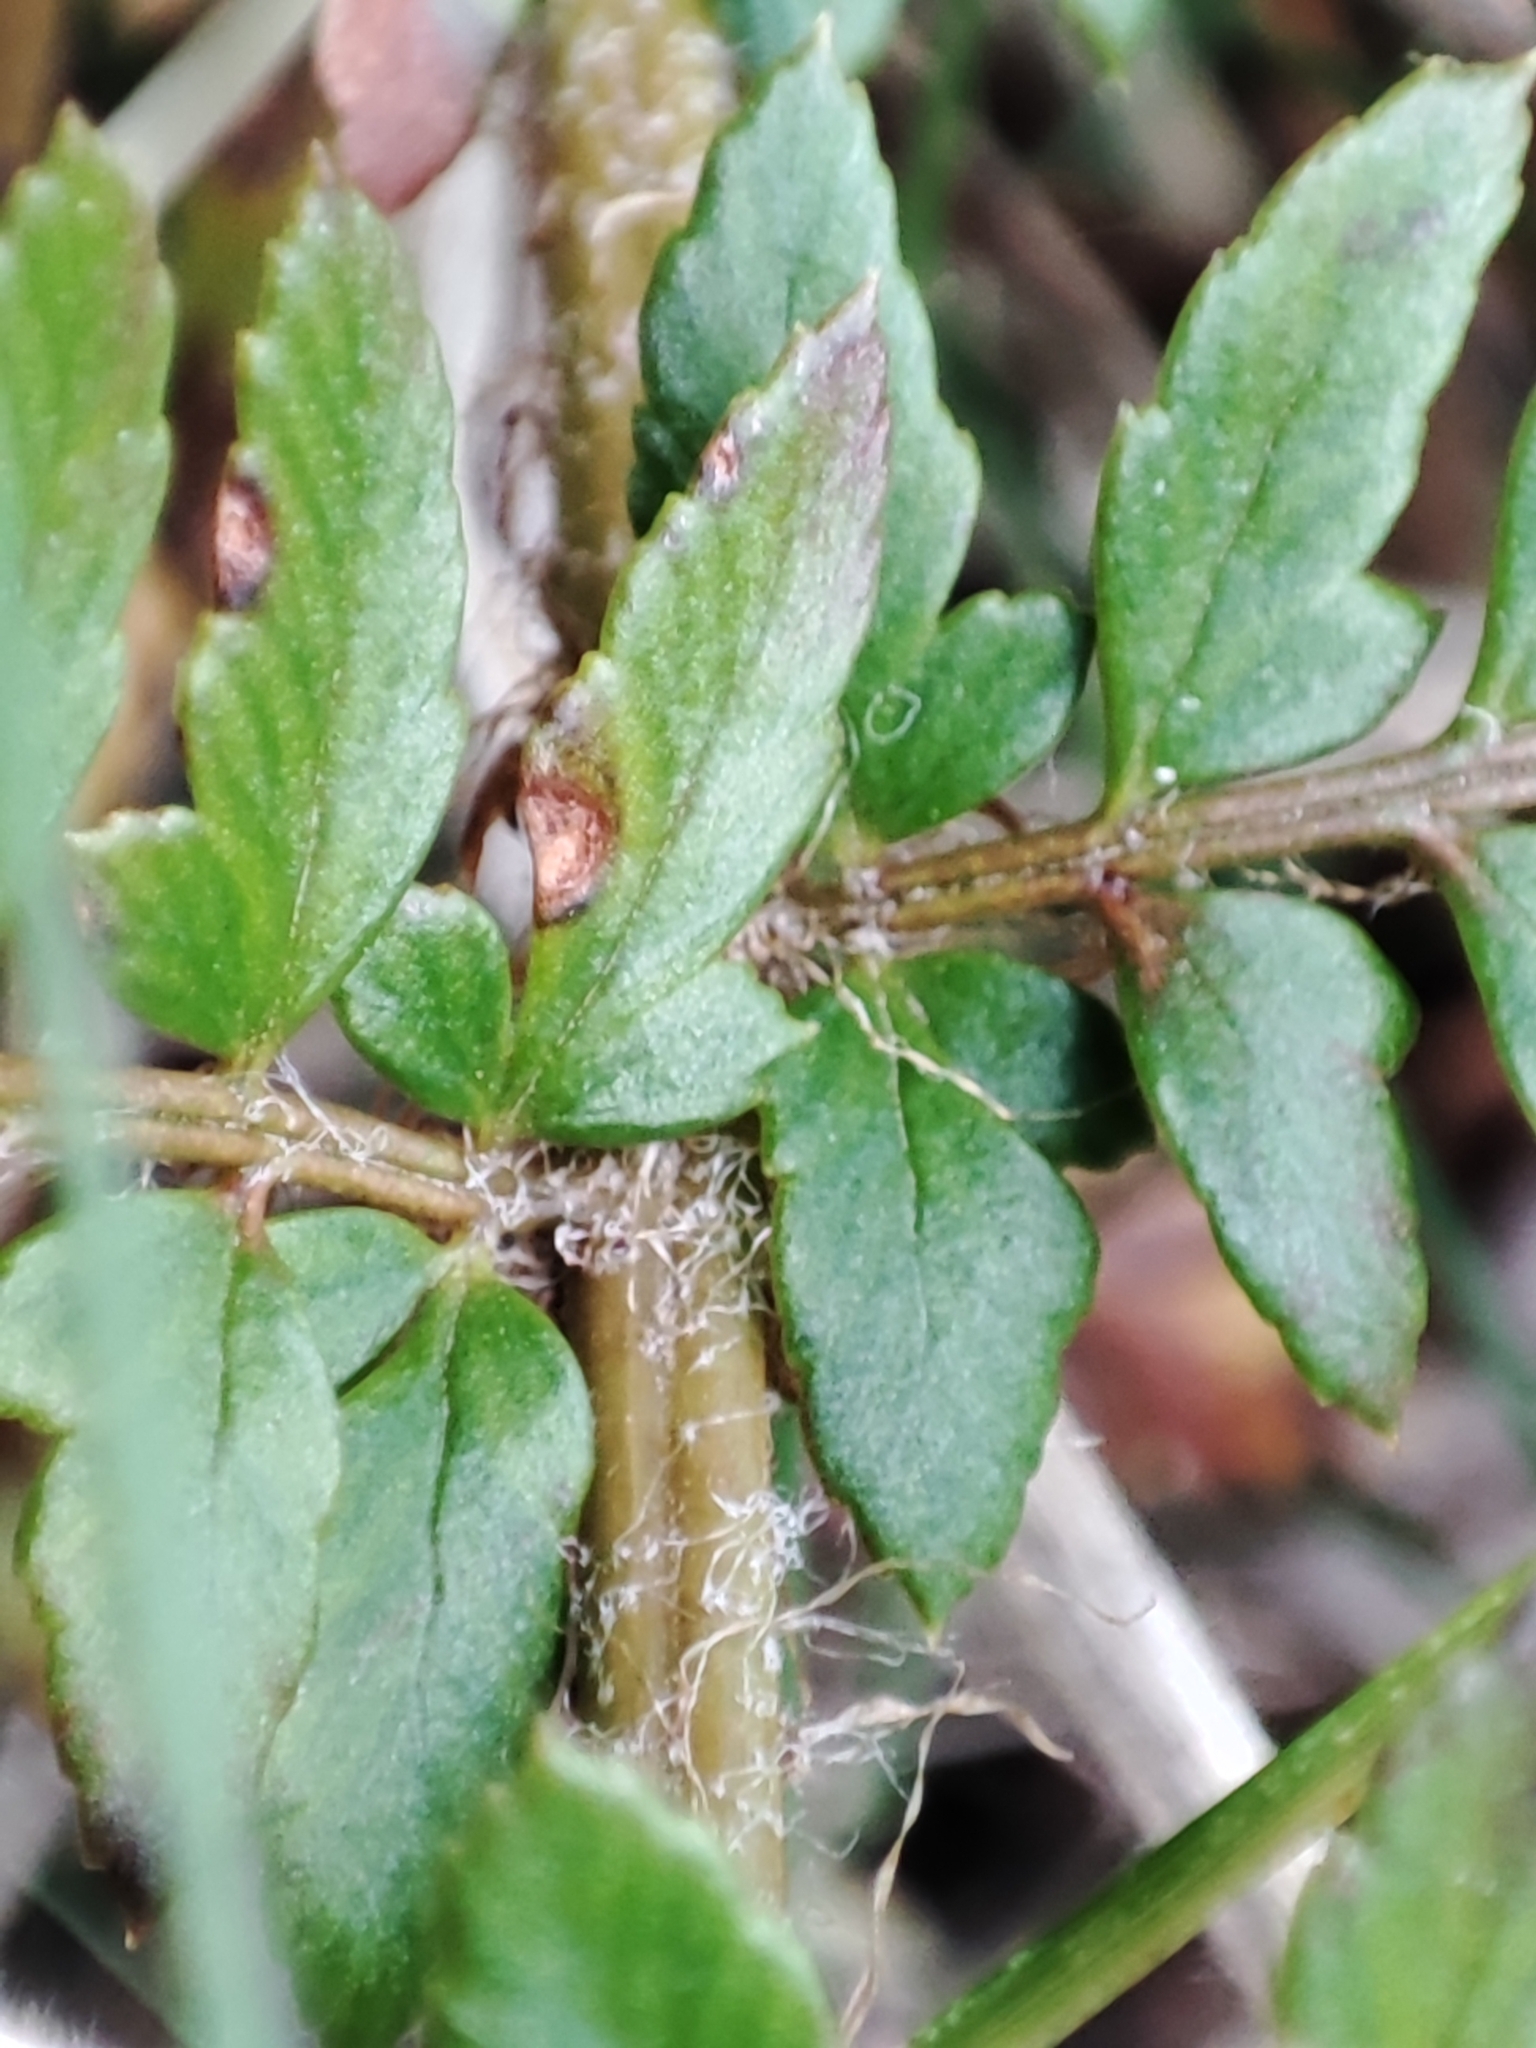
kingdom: Plantae
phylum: Tracheophyta
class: Polypodiopsida
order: Polypodiales
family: Dryopteridaceae
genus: Polystichum
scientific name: Polystichum proliferum
